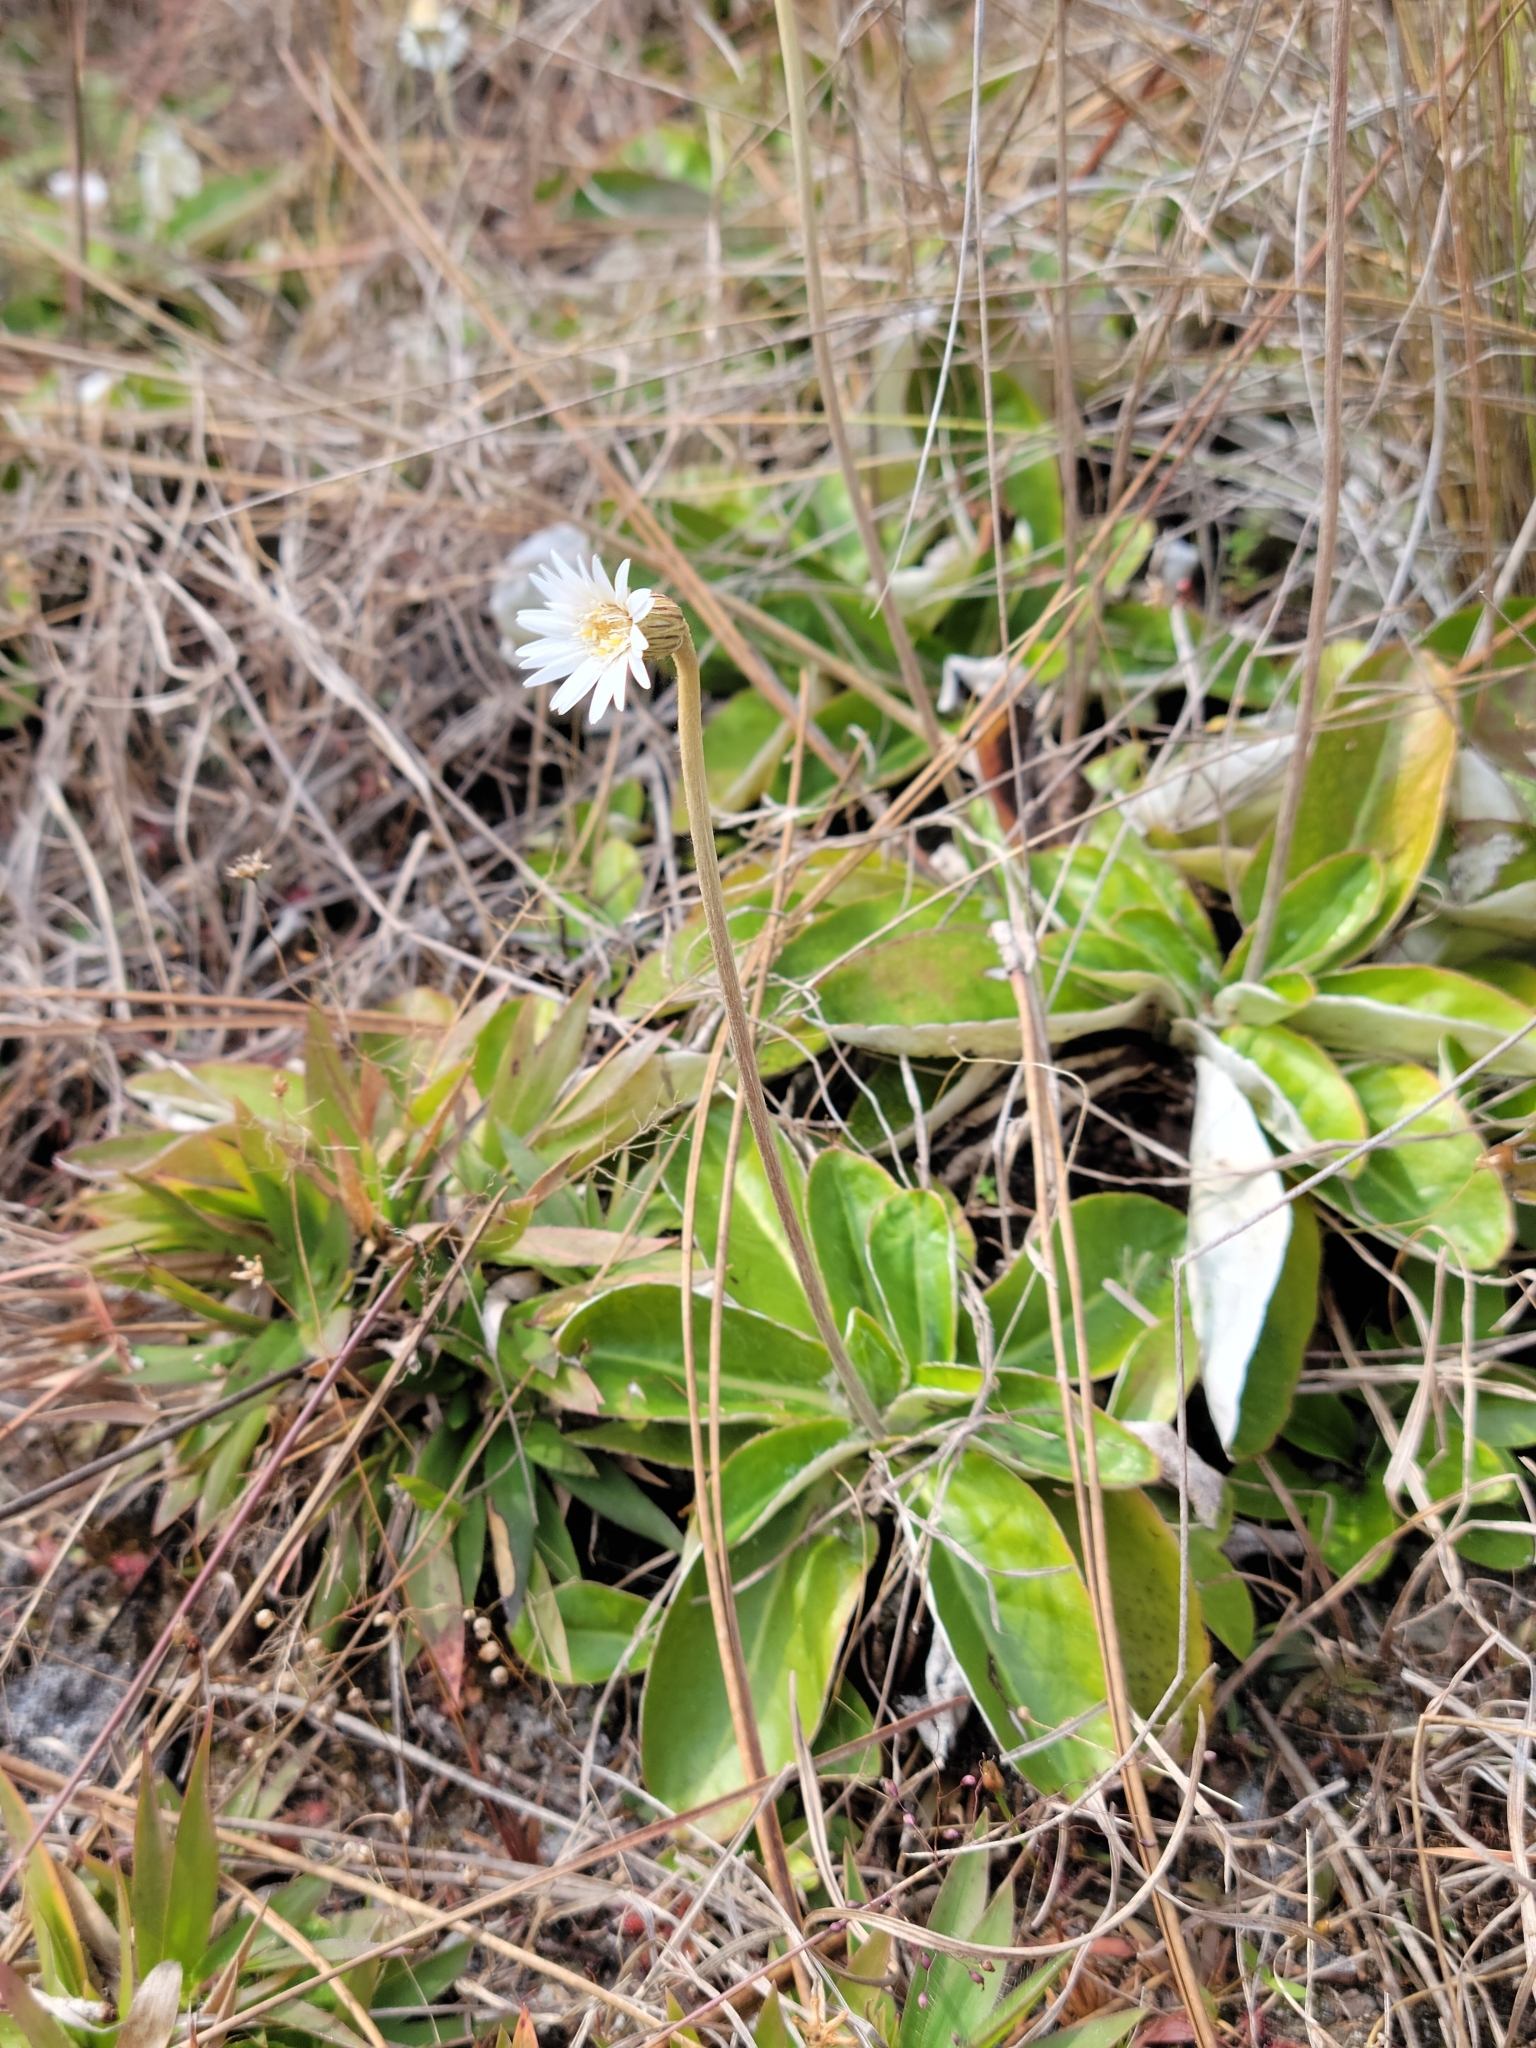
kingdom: Plantae
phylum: Tracheophyta
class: Magnoliopsida
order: Asterales
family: Asteraceae
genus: Chaptalia
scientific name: Chaptalia tomentosa
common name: Woolly sunbonnet
